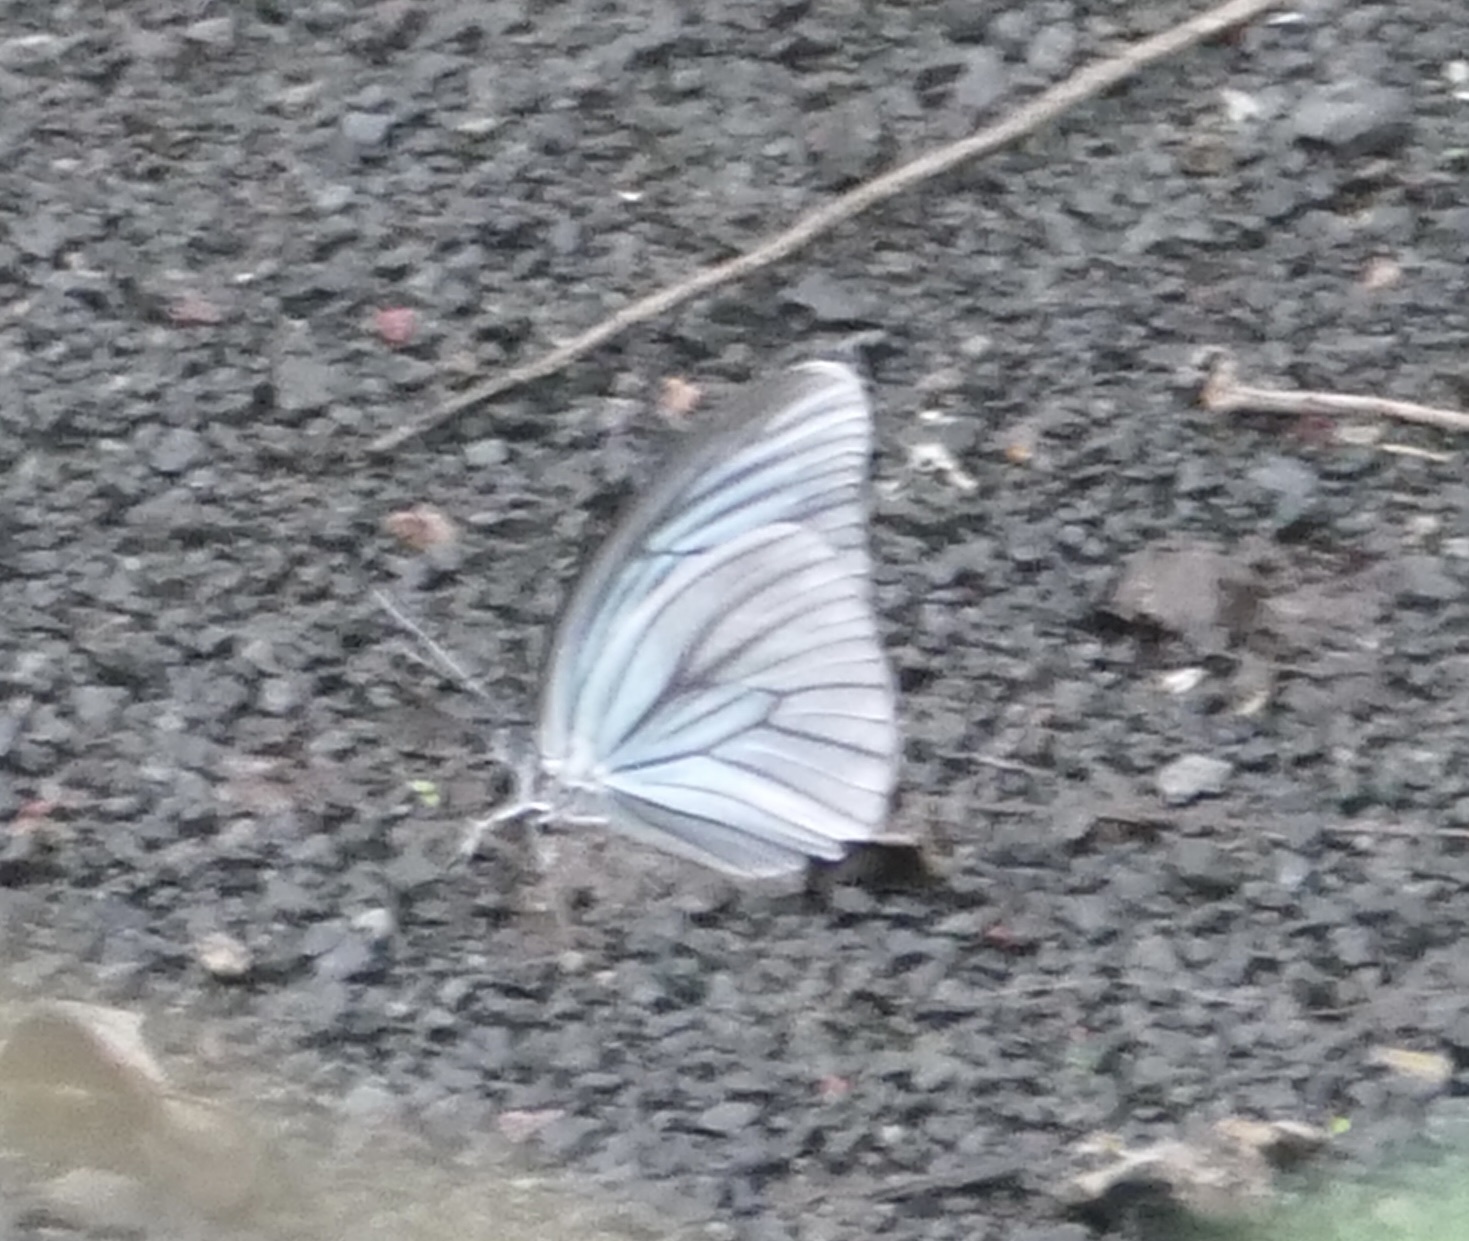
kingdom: Animalia
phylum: Arthropoda
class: Insecta
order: Lepidoptera
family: Pieridae
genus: Pareronia
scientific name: Pareronia tritaea
